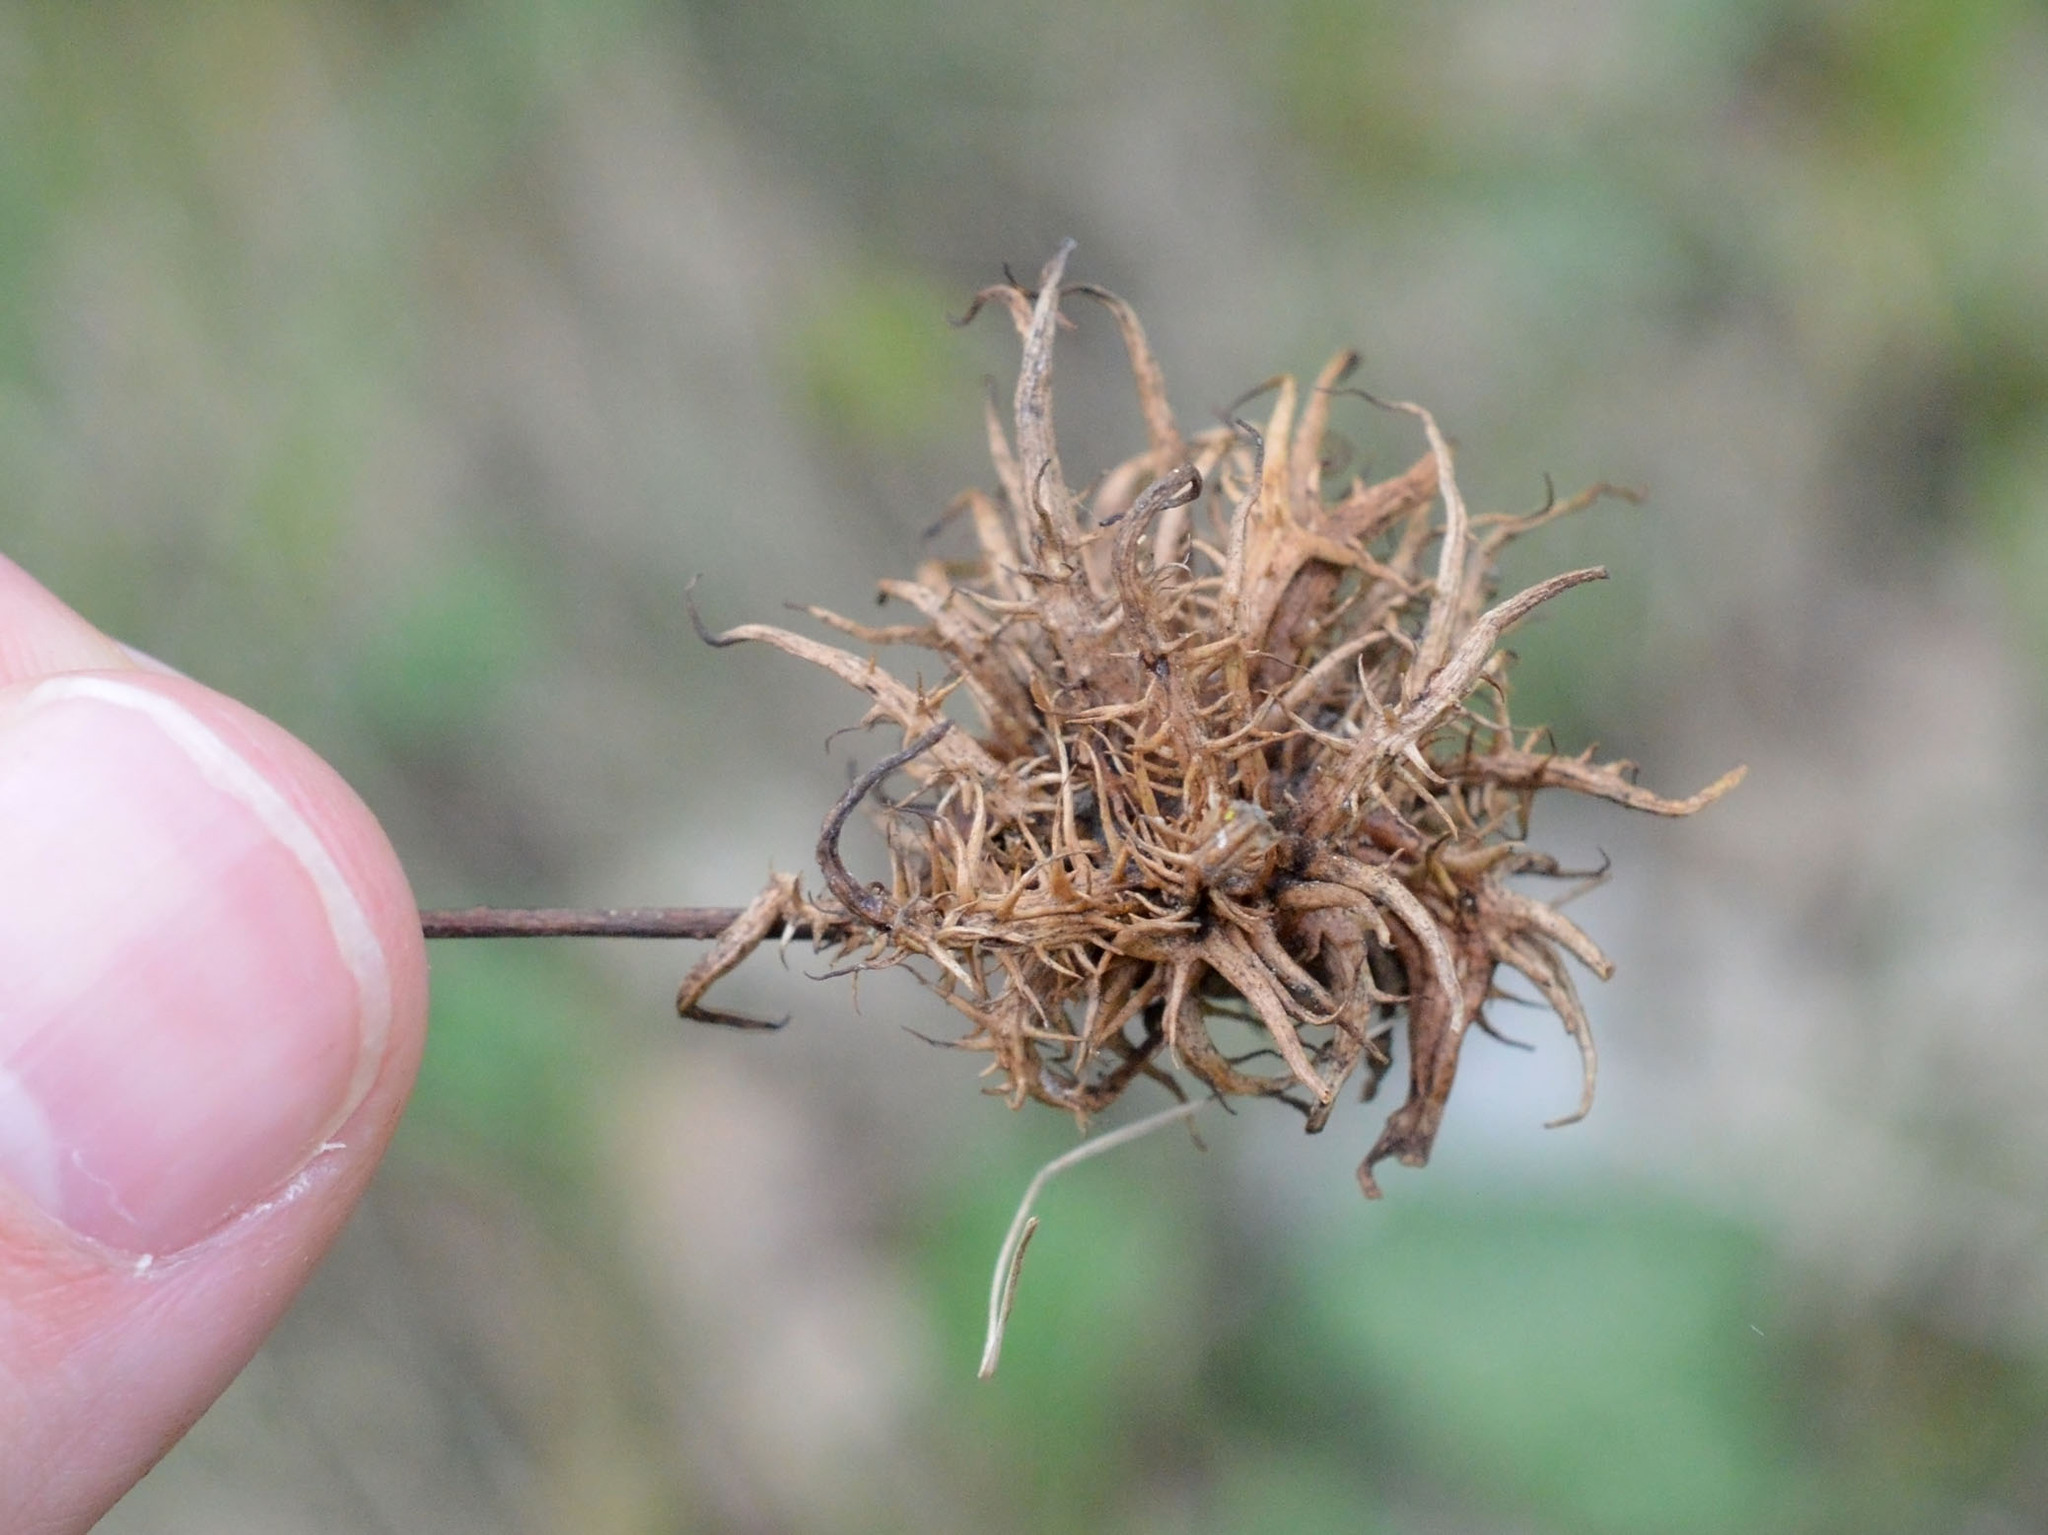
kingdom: Animalia
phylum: Arthropoda
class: Insecta
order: Hymenoptera
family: Cynipidae
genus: Andricus
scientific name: Andricus caputmedusae
